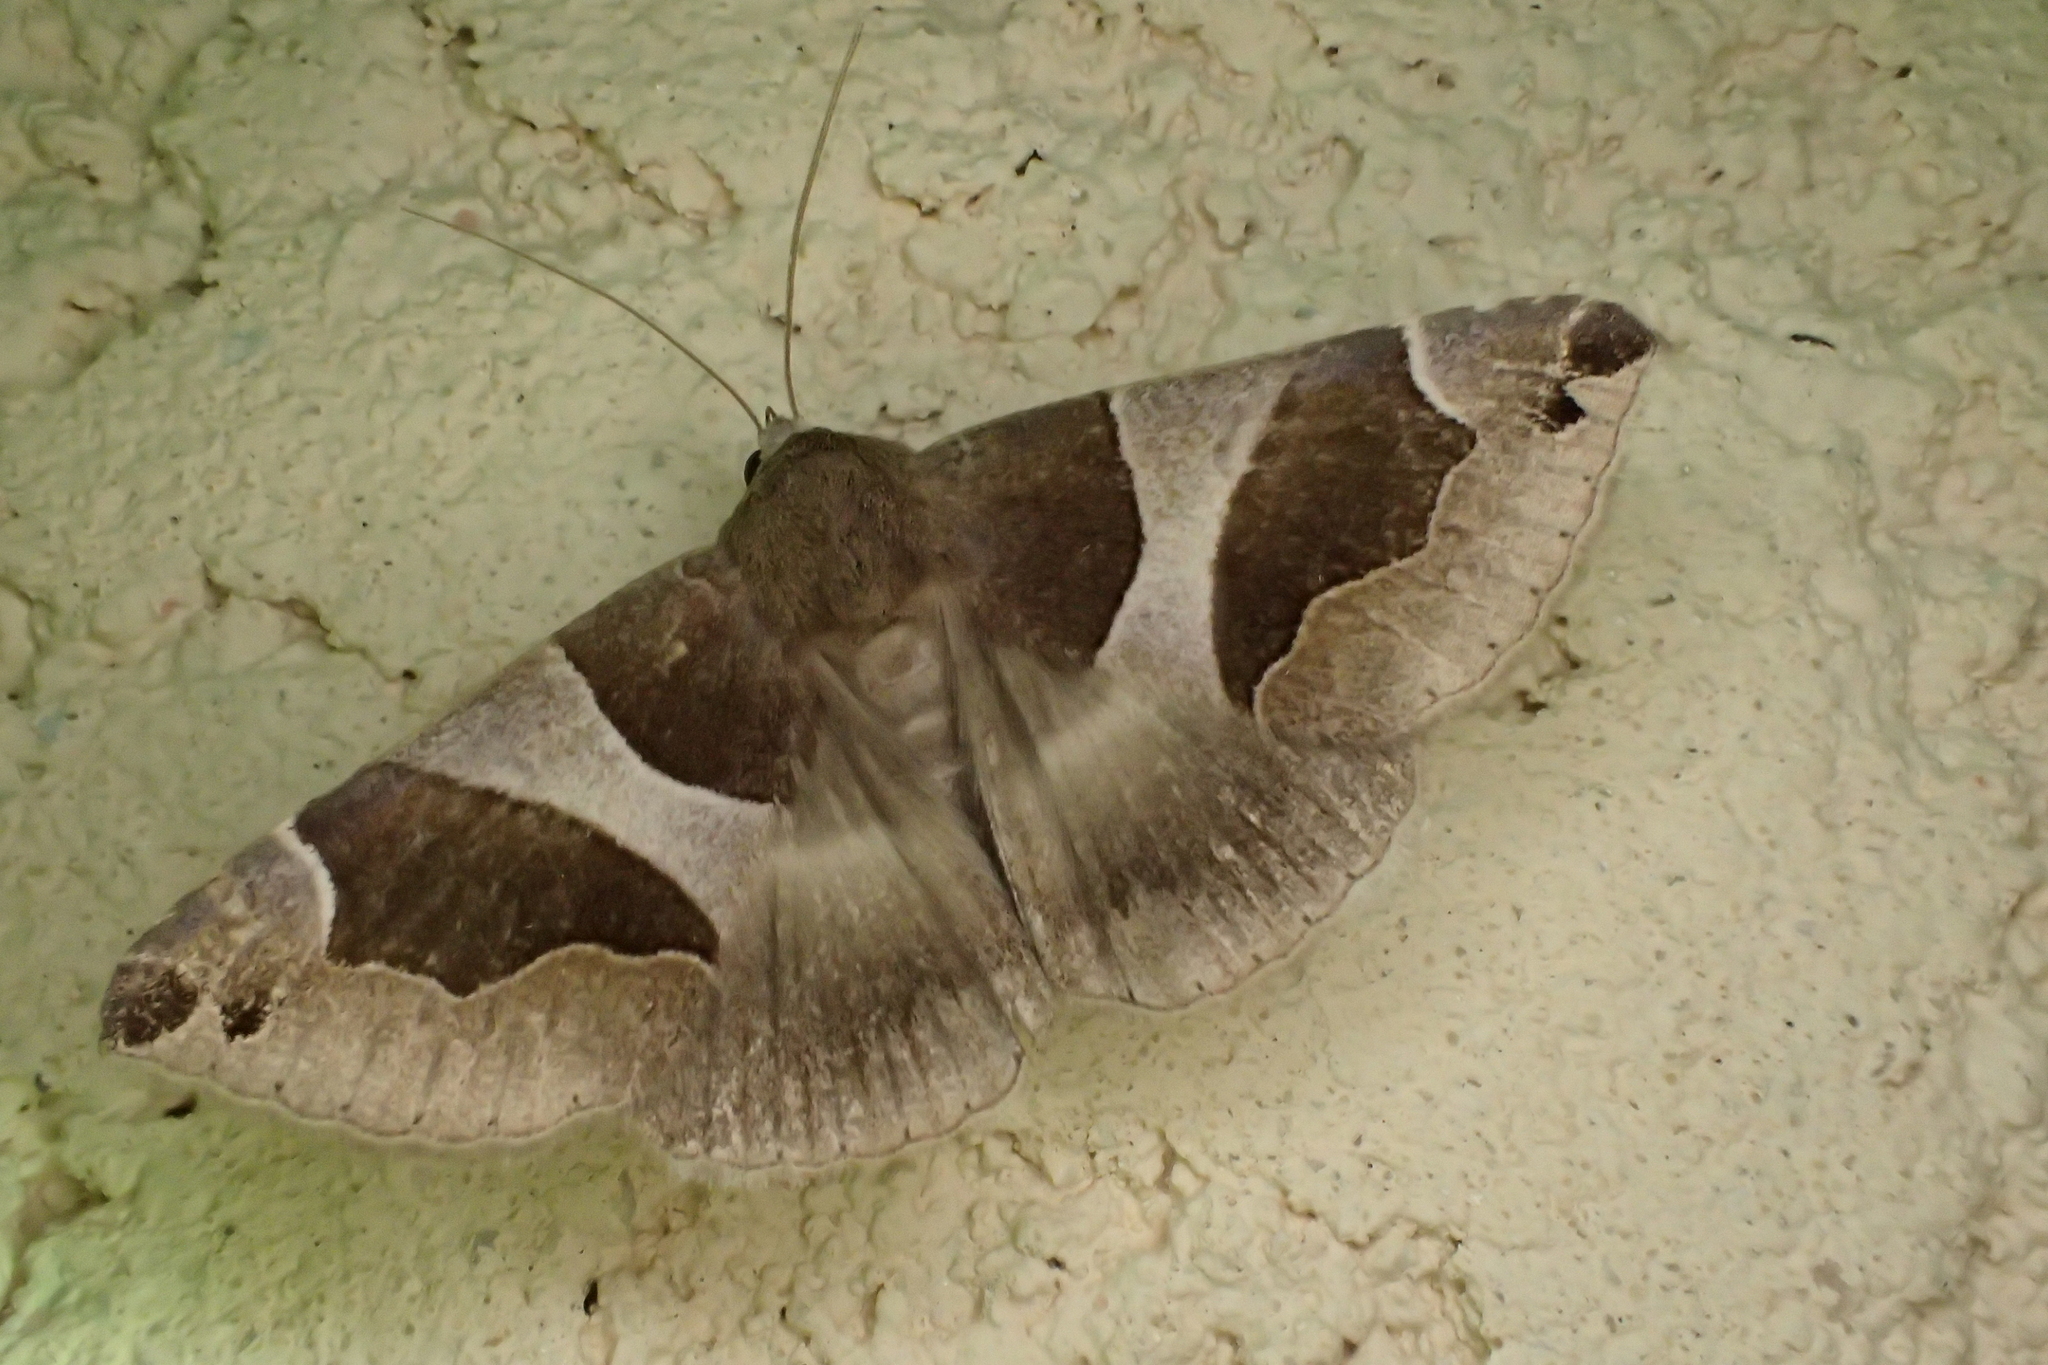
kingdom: Animalia
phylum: Arthropoda
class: Insecta
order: Lepidoptera
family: Erebidae
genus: Dysgonia
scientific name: Dysgonia algira
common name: Passenger
